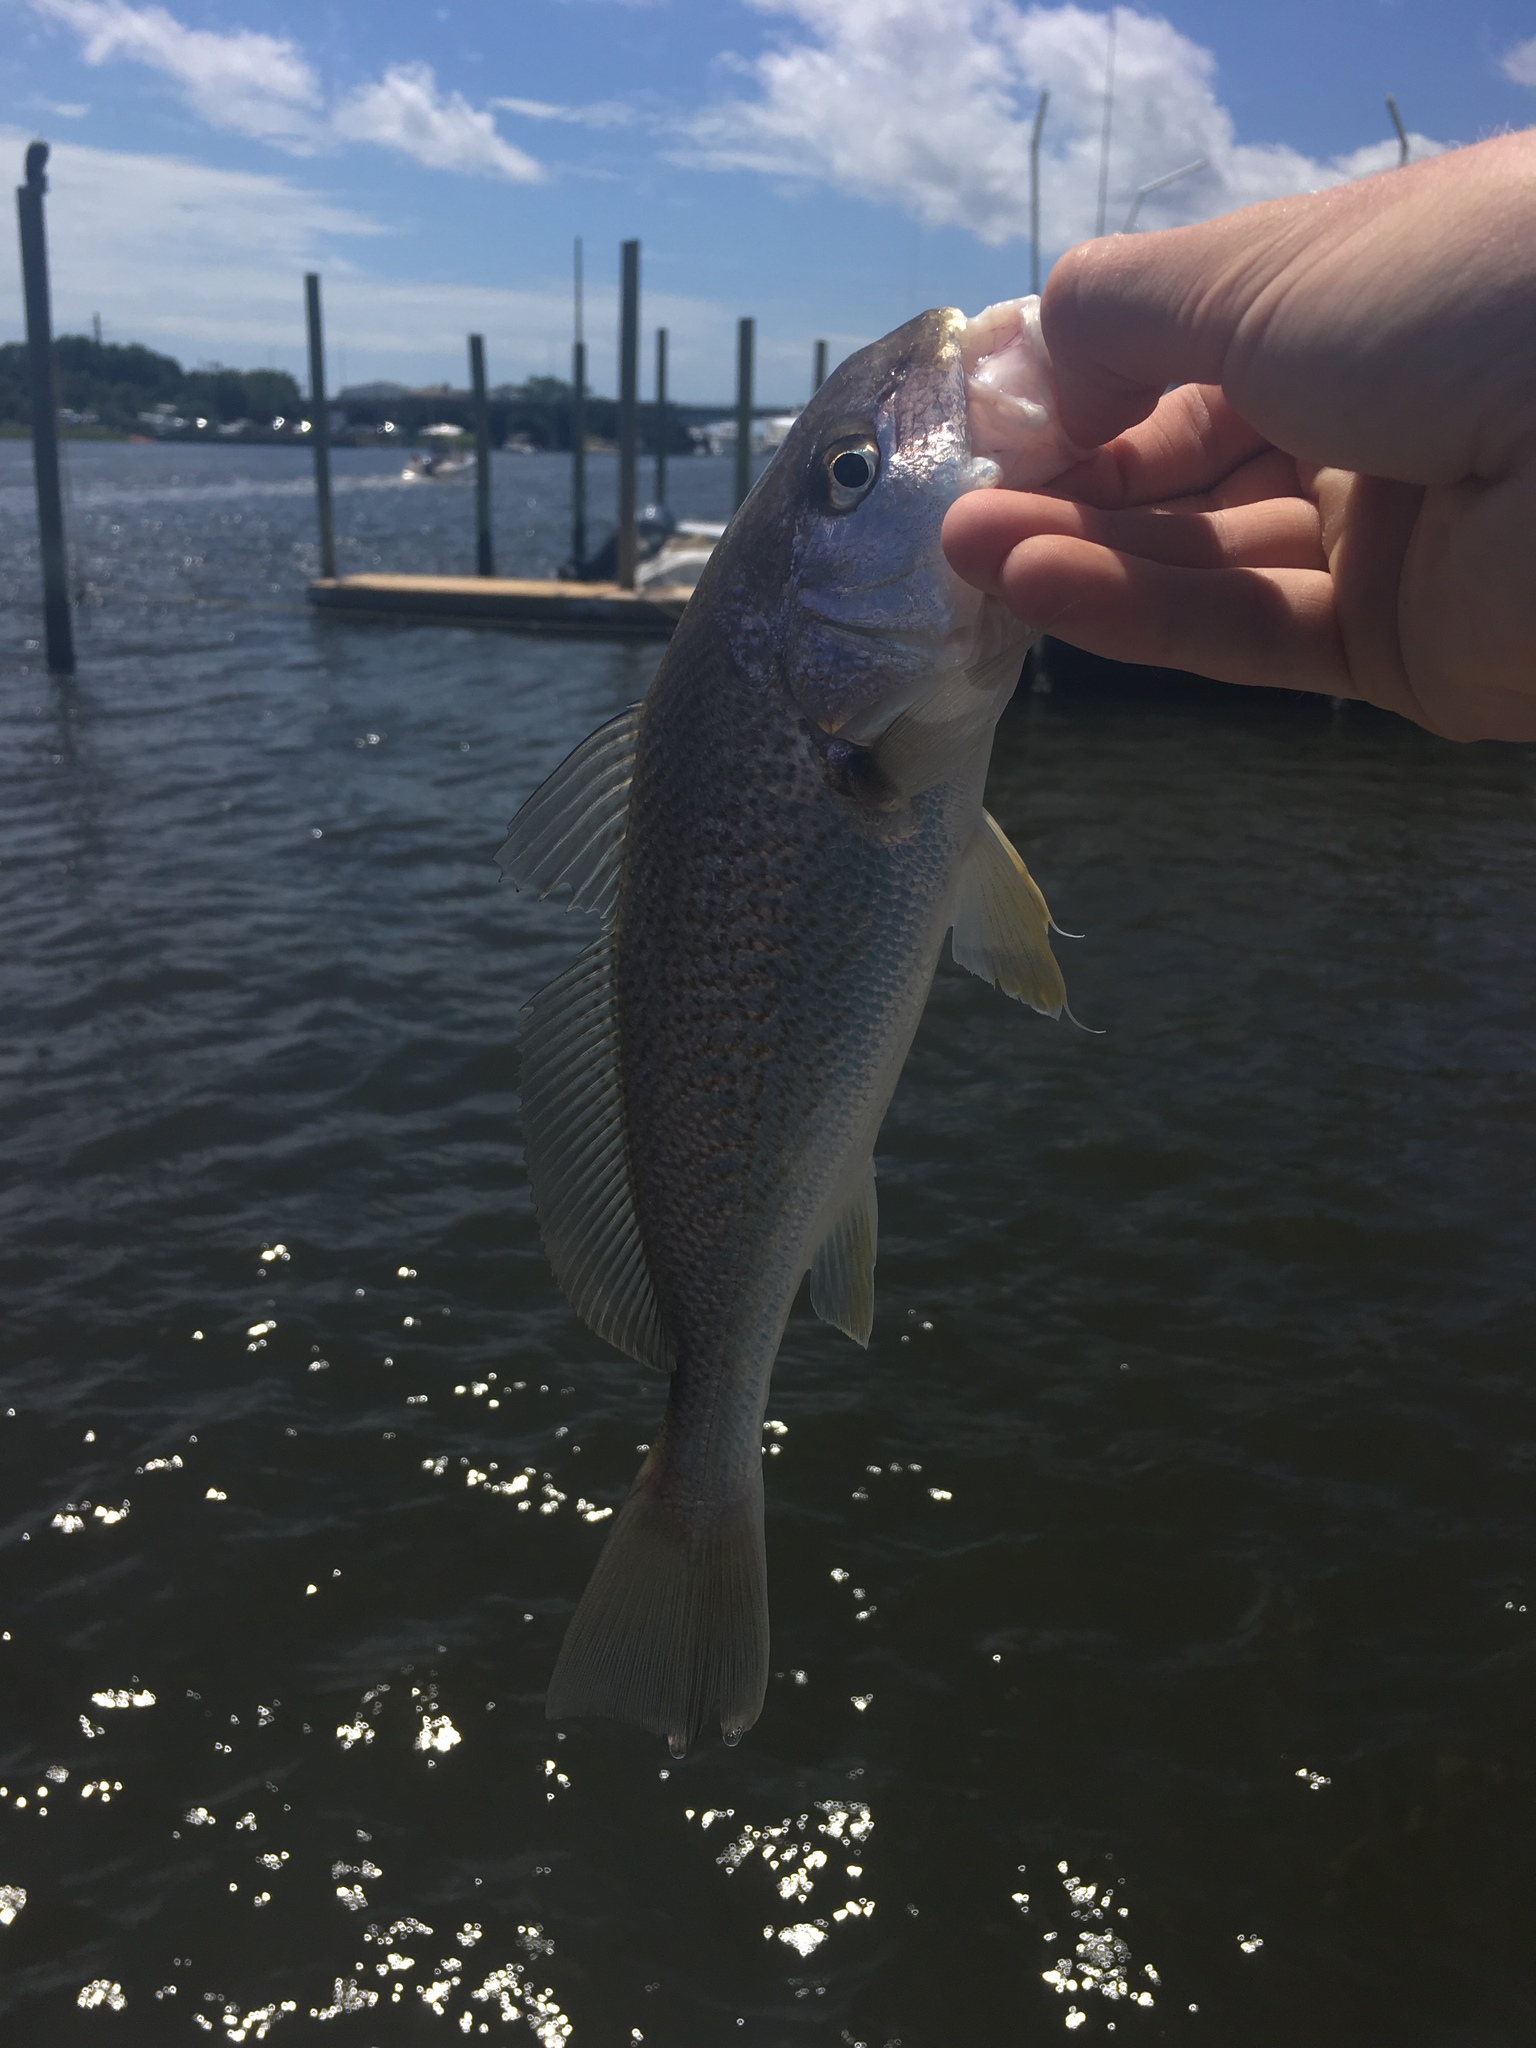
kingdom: Animalia
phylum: Chordata
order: Perciformes
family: Sciaenidae
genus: Micropogonias
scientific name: Micropogonias undulatus
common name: Atlantic croaker
